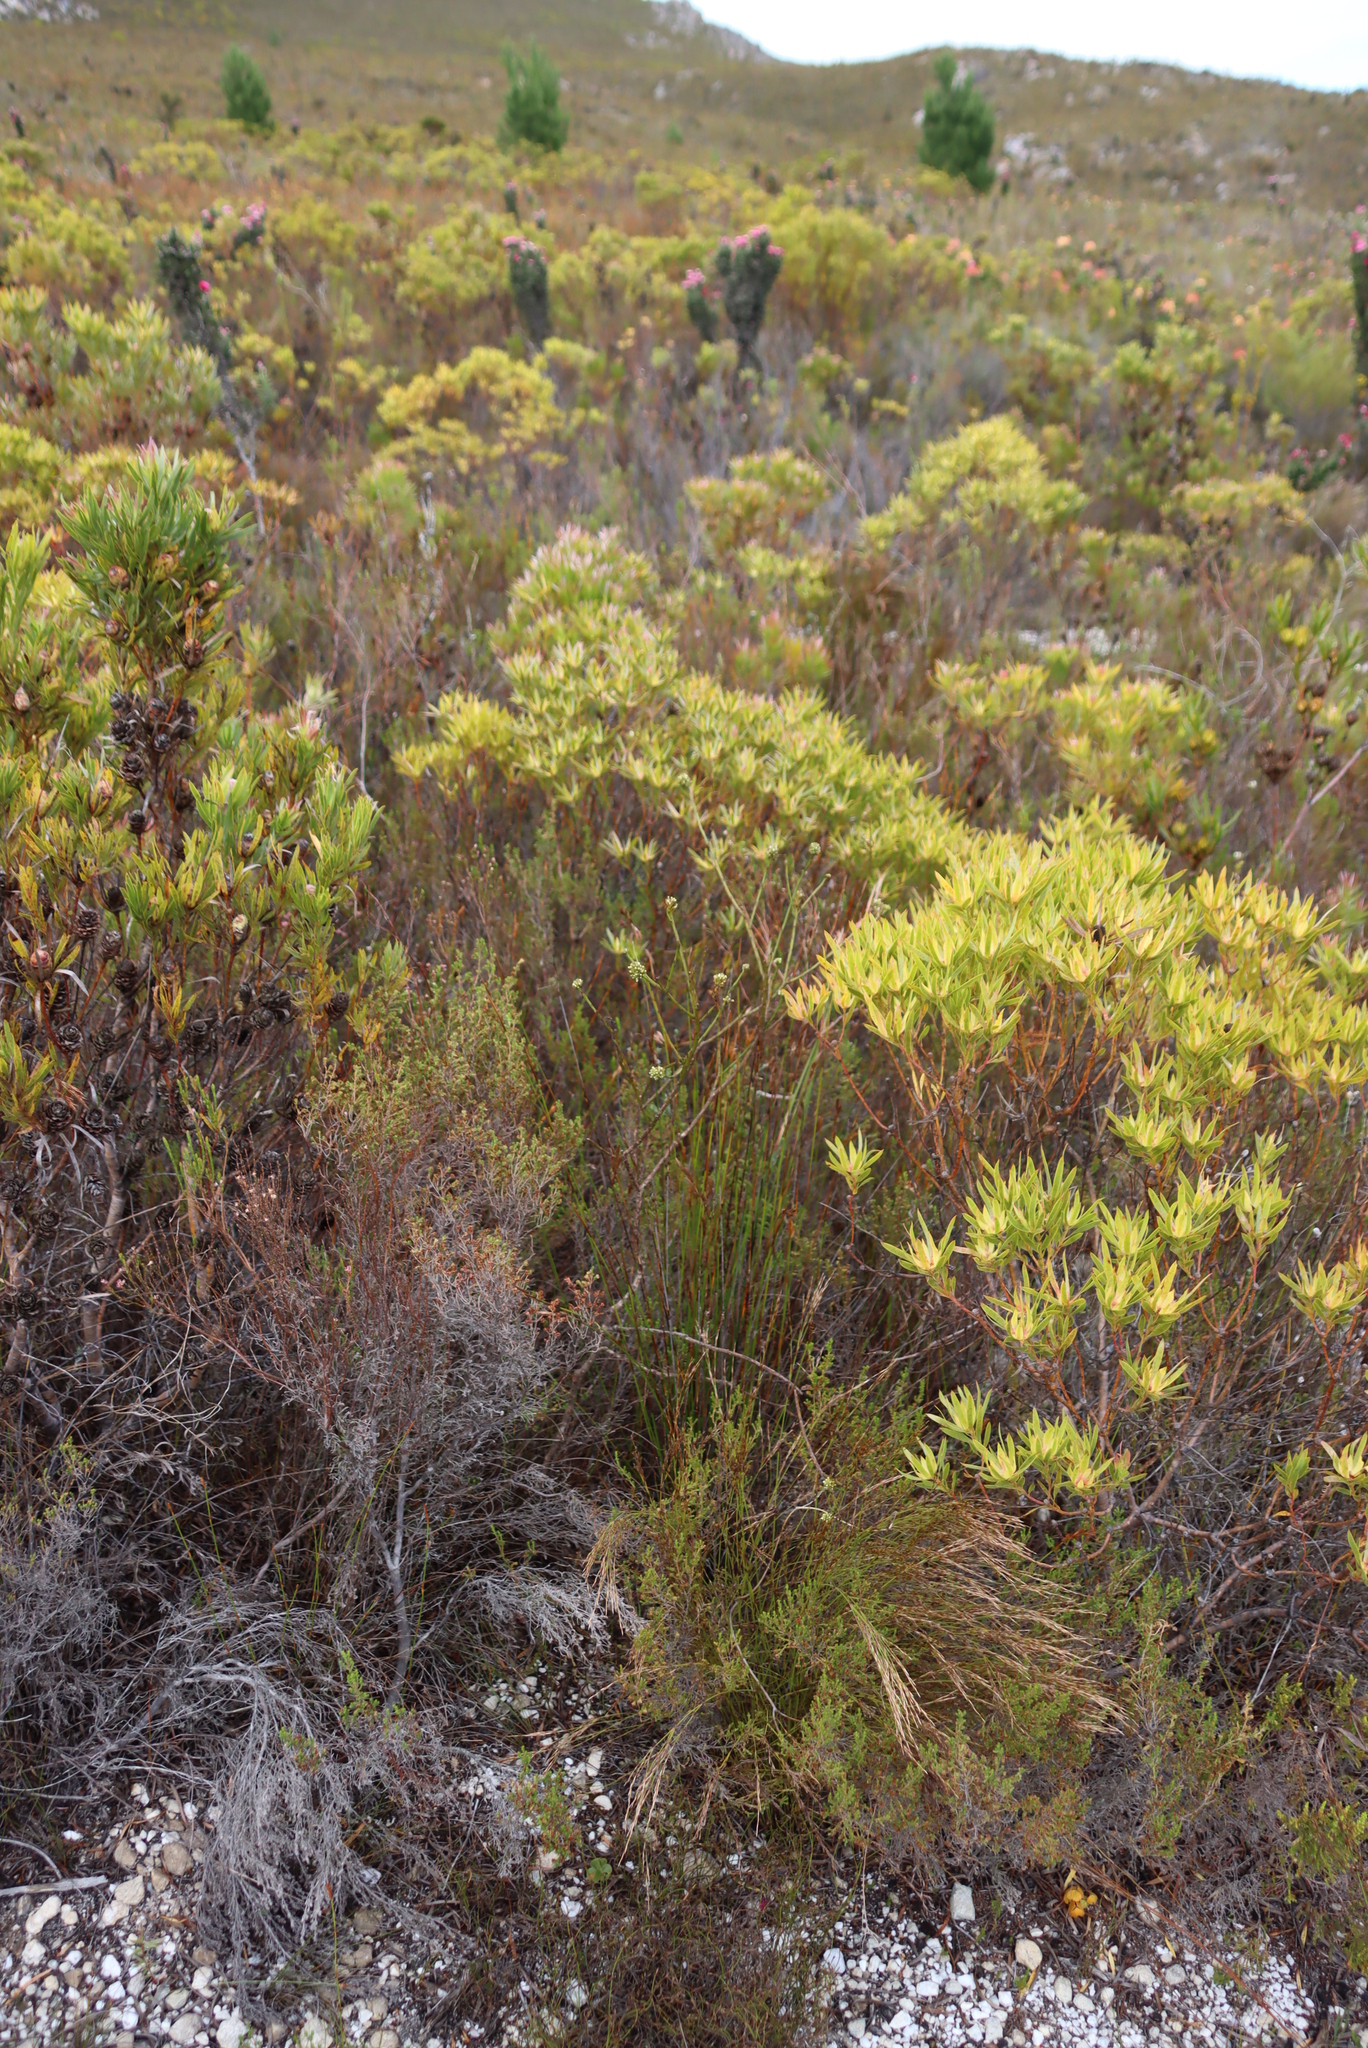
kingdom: Plantae
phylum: Tracheophyta
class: Magnoliopsida
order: Santalales
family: Thesiaceae
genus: Thesium
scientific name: Thesium spicatum
